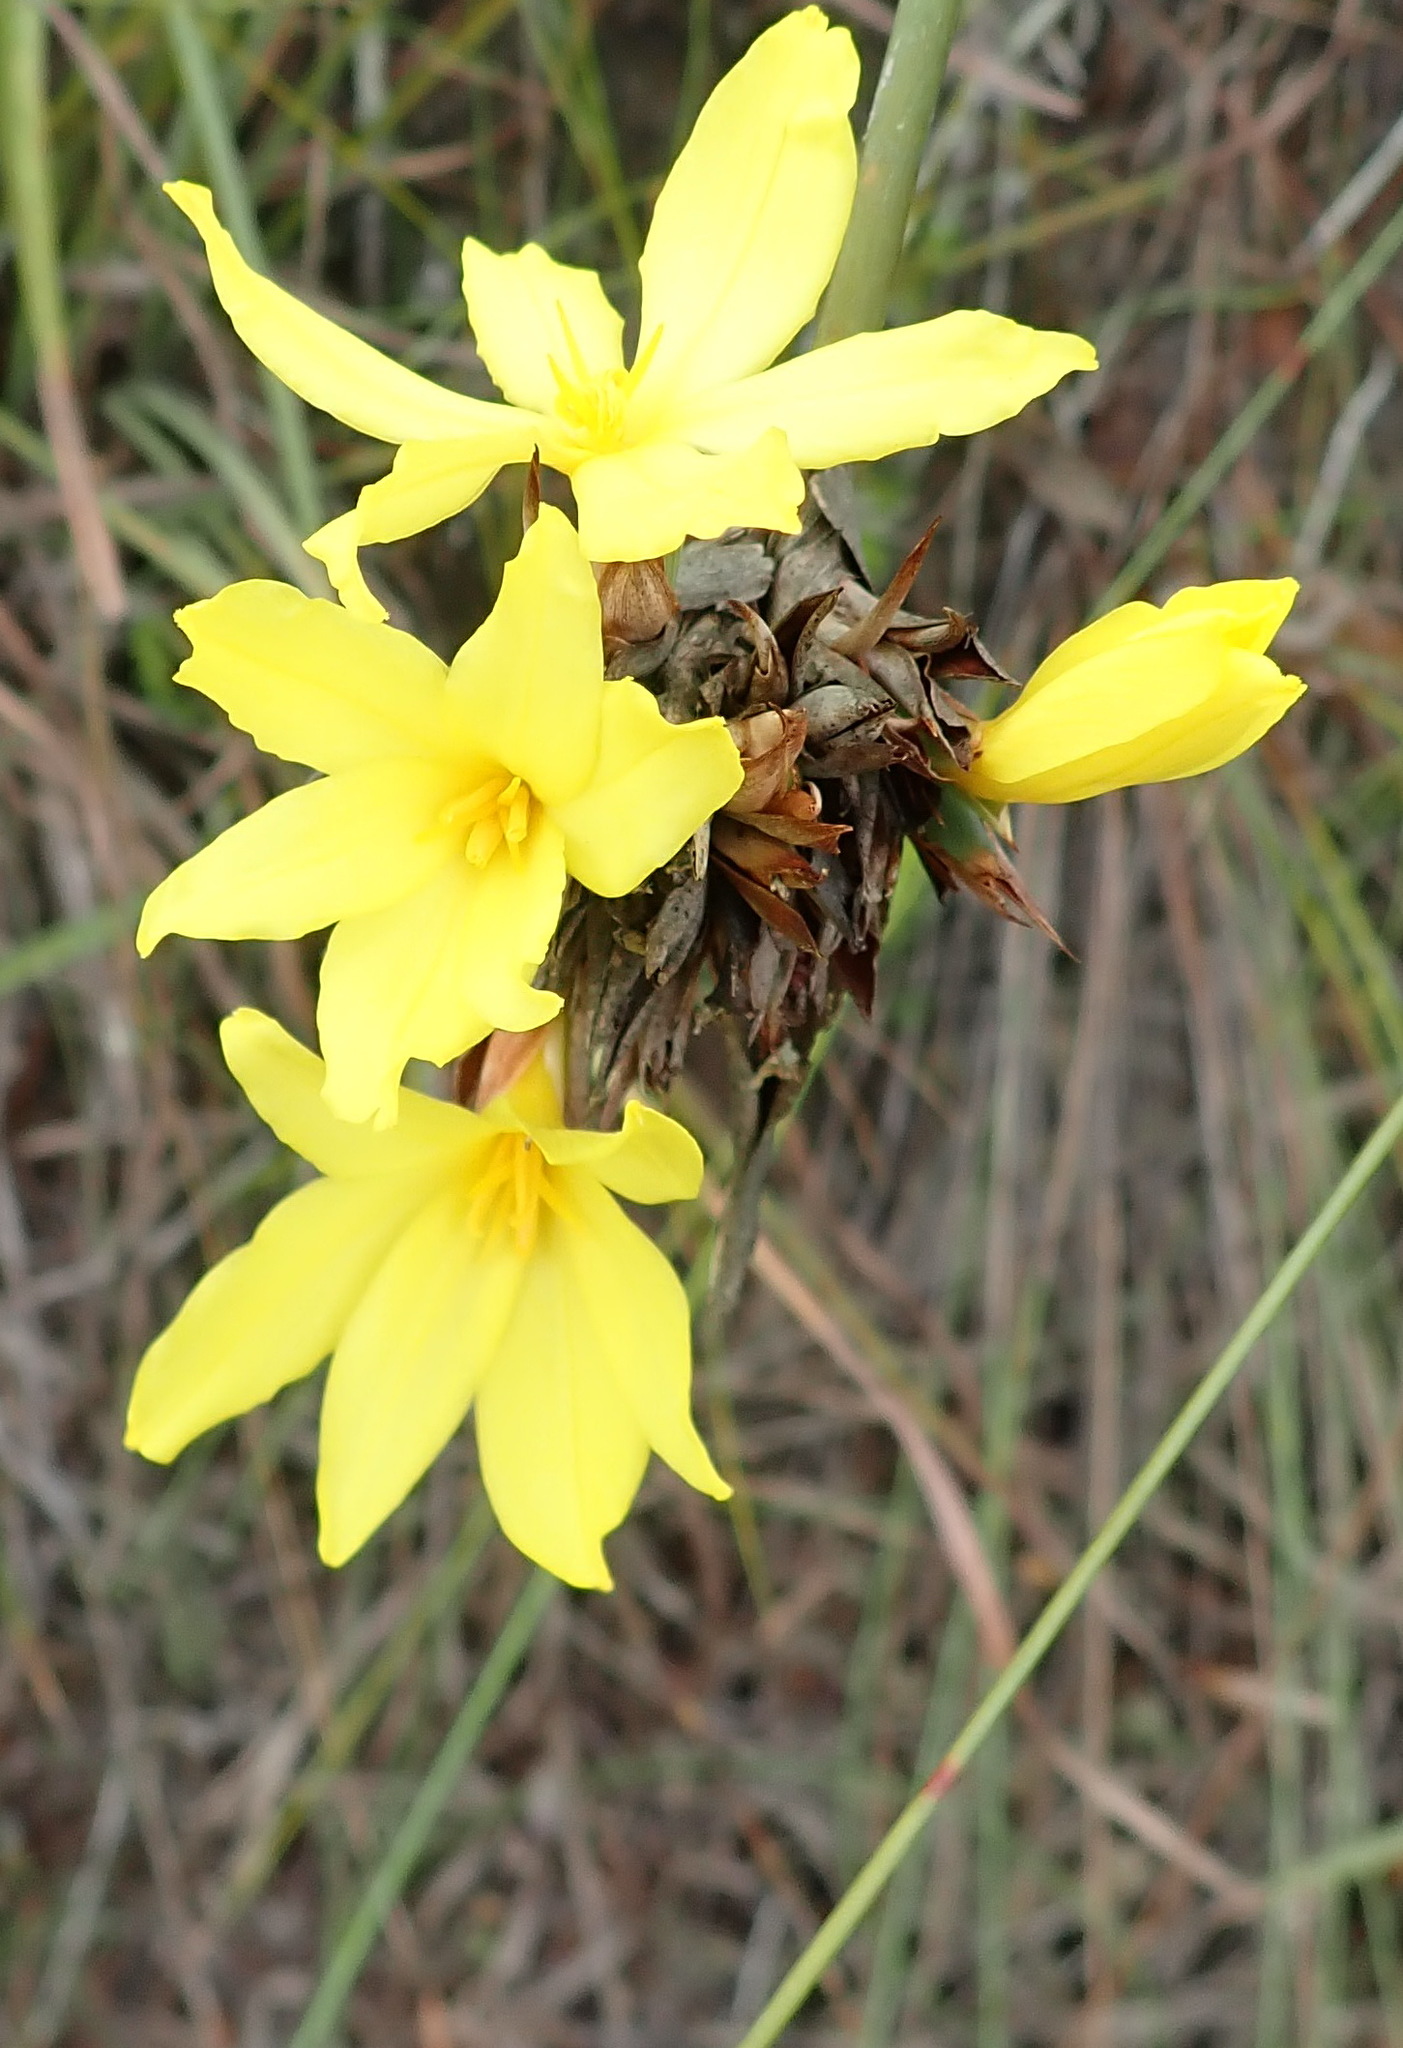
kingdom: Plantae
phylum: Tracheophyta
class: Liliopsida
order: Asparagales
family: Iridaceae
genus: Bobartia
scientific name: Bobartia macrospatha
